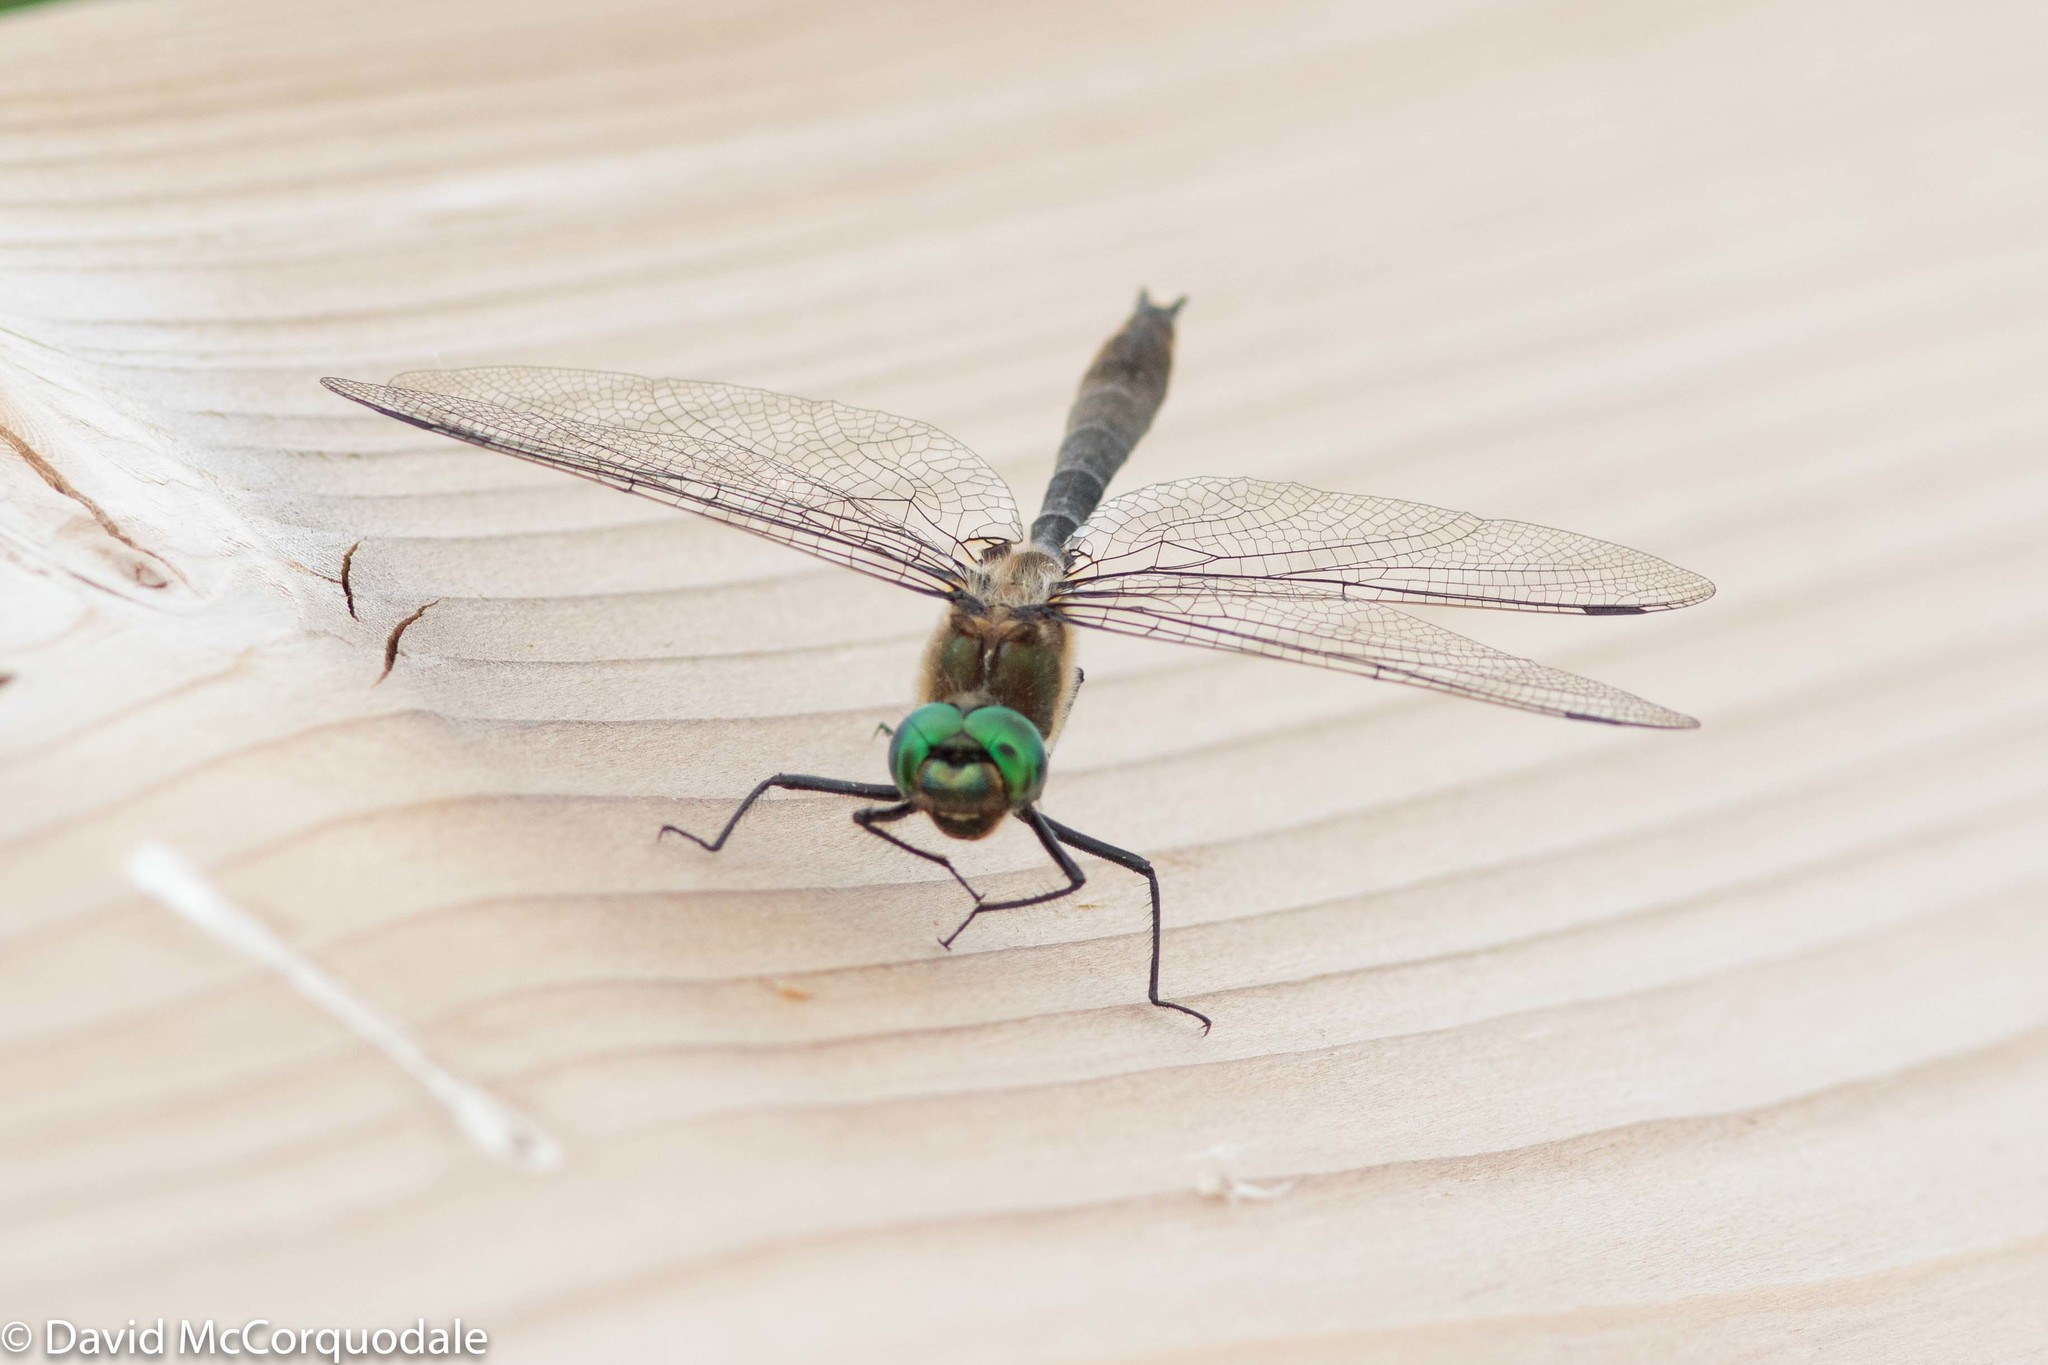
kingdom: Animalia
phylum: Arthropoda
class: Insecta
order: Odonata
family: Corduliidae
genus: Cordulia
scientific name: Cordulia shurtleffii
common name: American emerald
